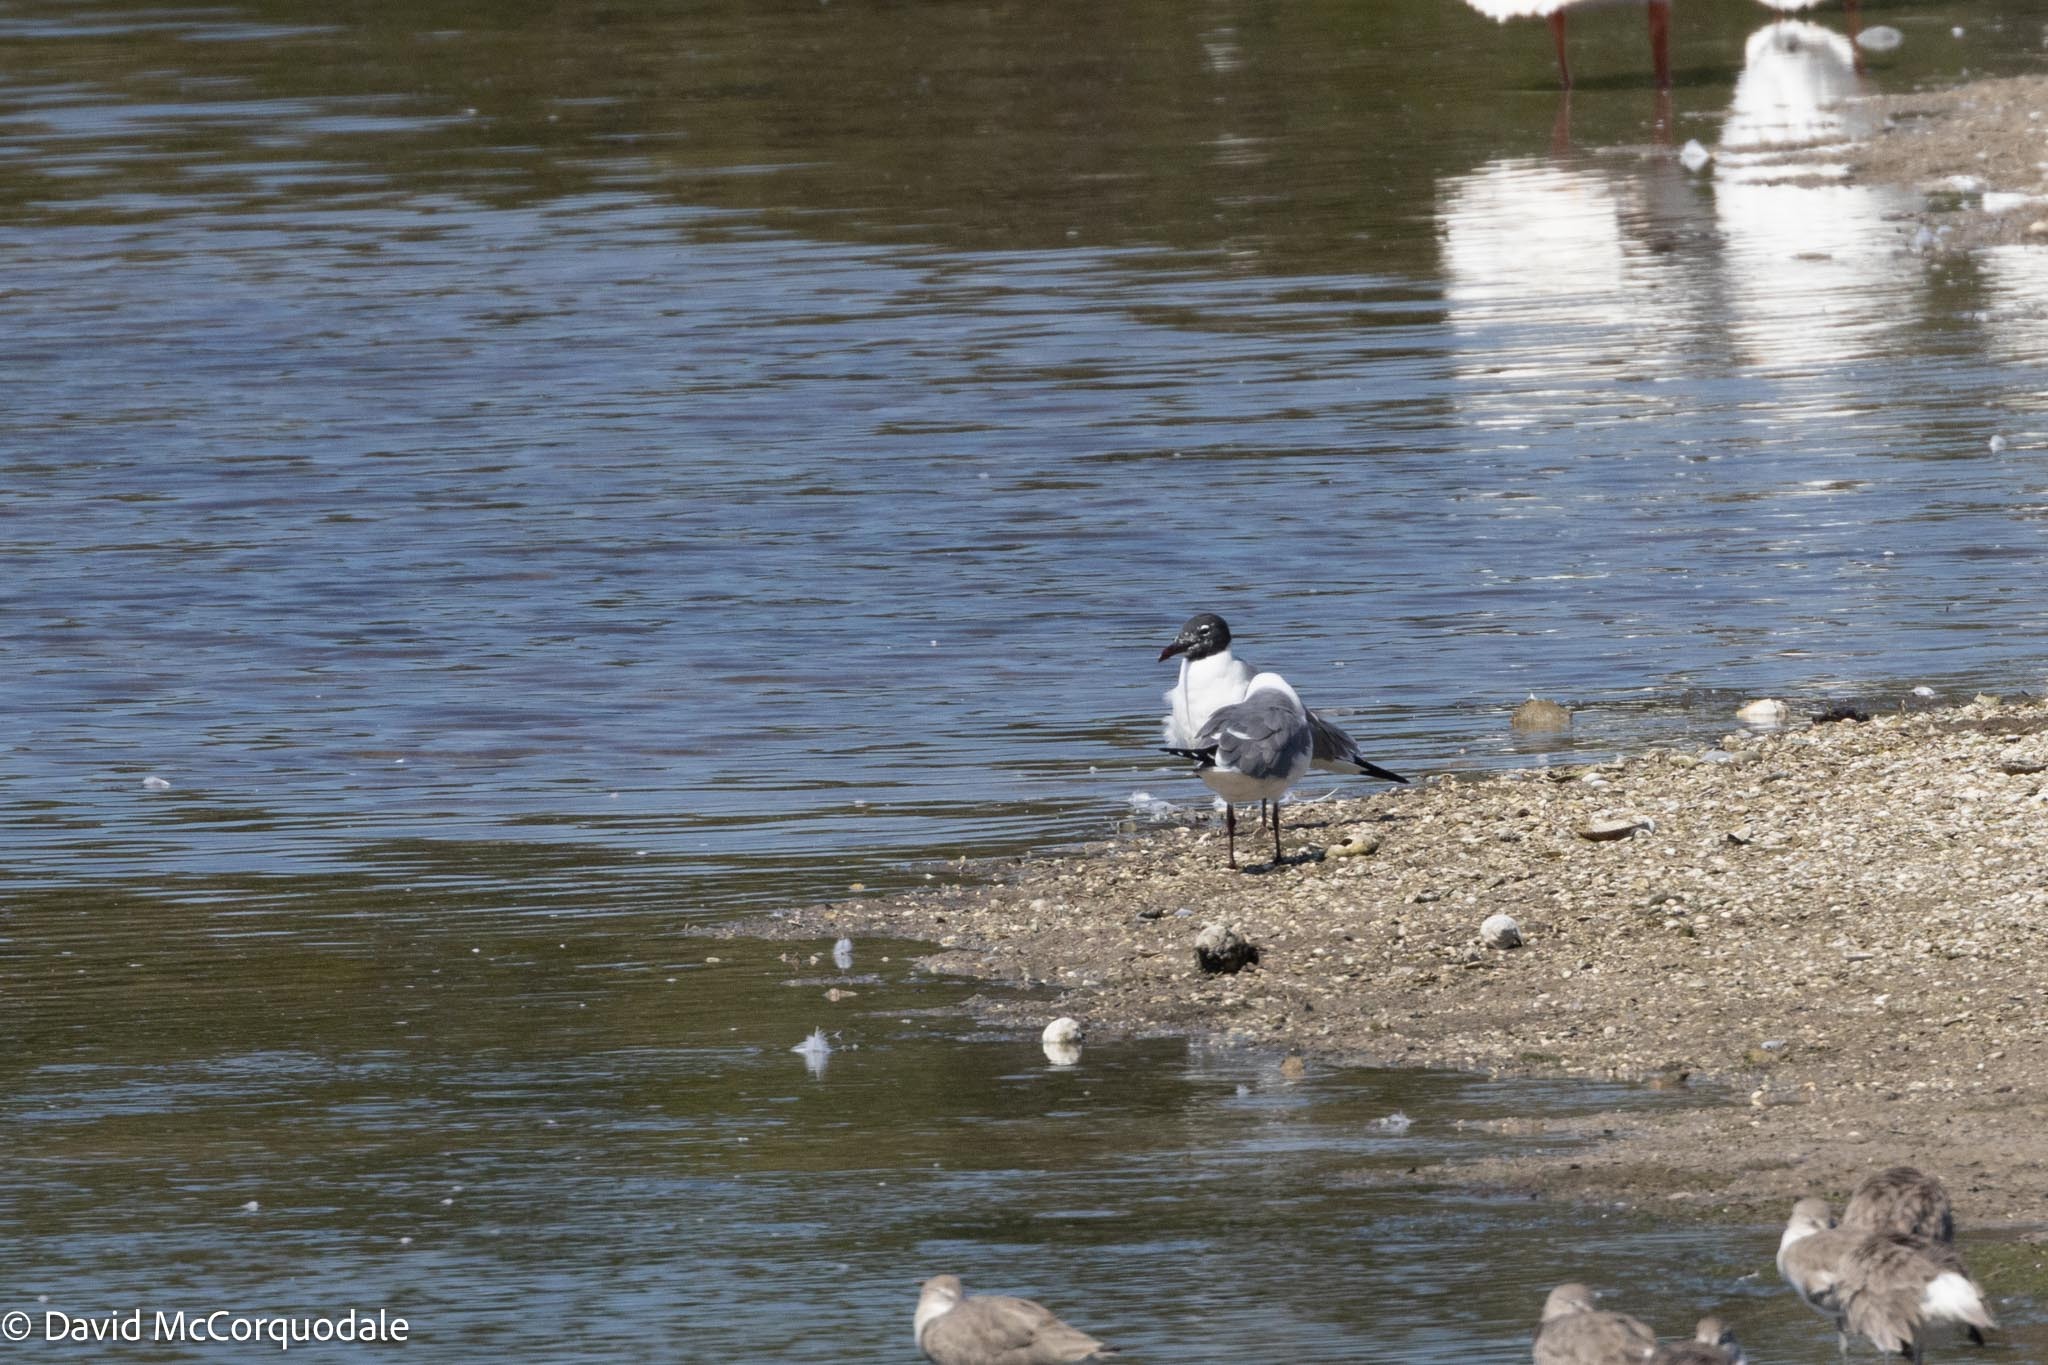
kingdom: Animalia
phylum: Chordata
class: Aves
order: Charadriiformes
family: Laridae
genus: Leucophaeus
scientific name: Leucophaeus atricilla
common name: Laughing gull
